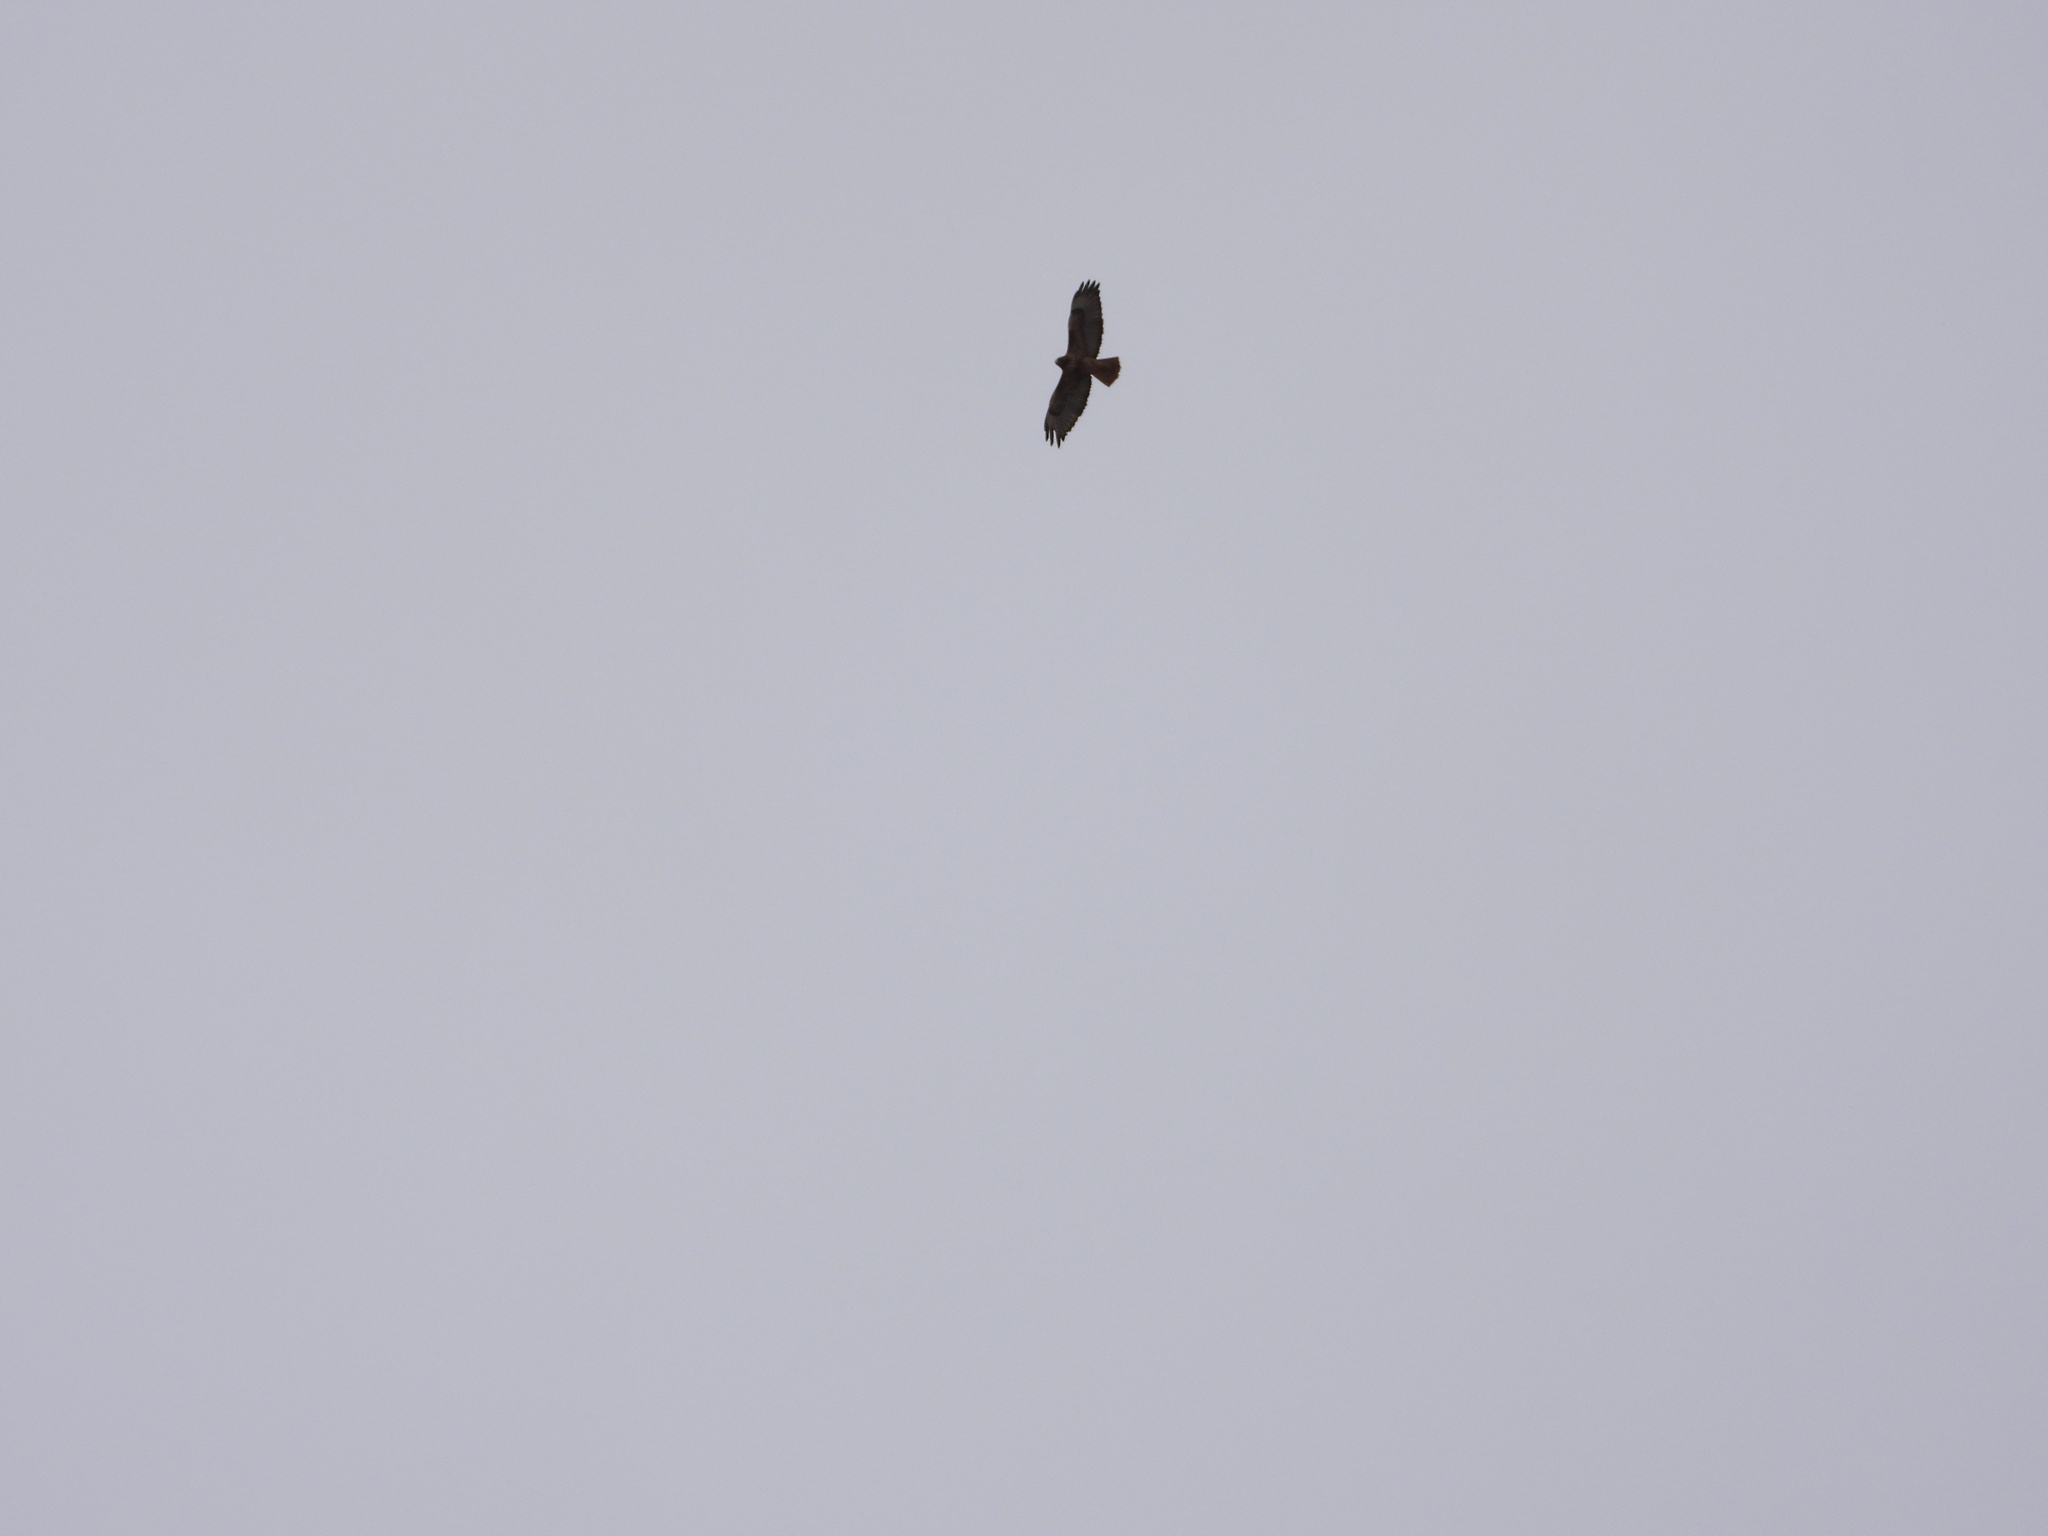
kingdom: Animalia
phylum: Chordata
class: Aves
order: Accipitriformes
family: Accipitridae
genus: Buteo
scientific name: Buteo jamaicensis
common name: Red-tailed hawk
